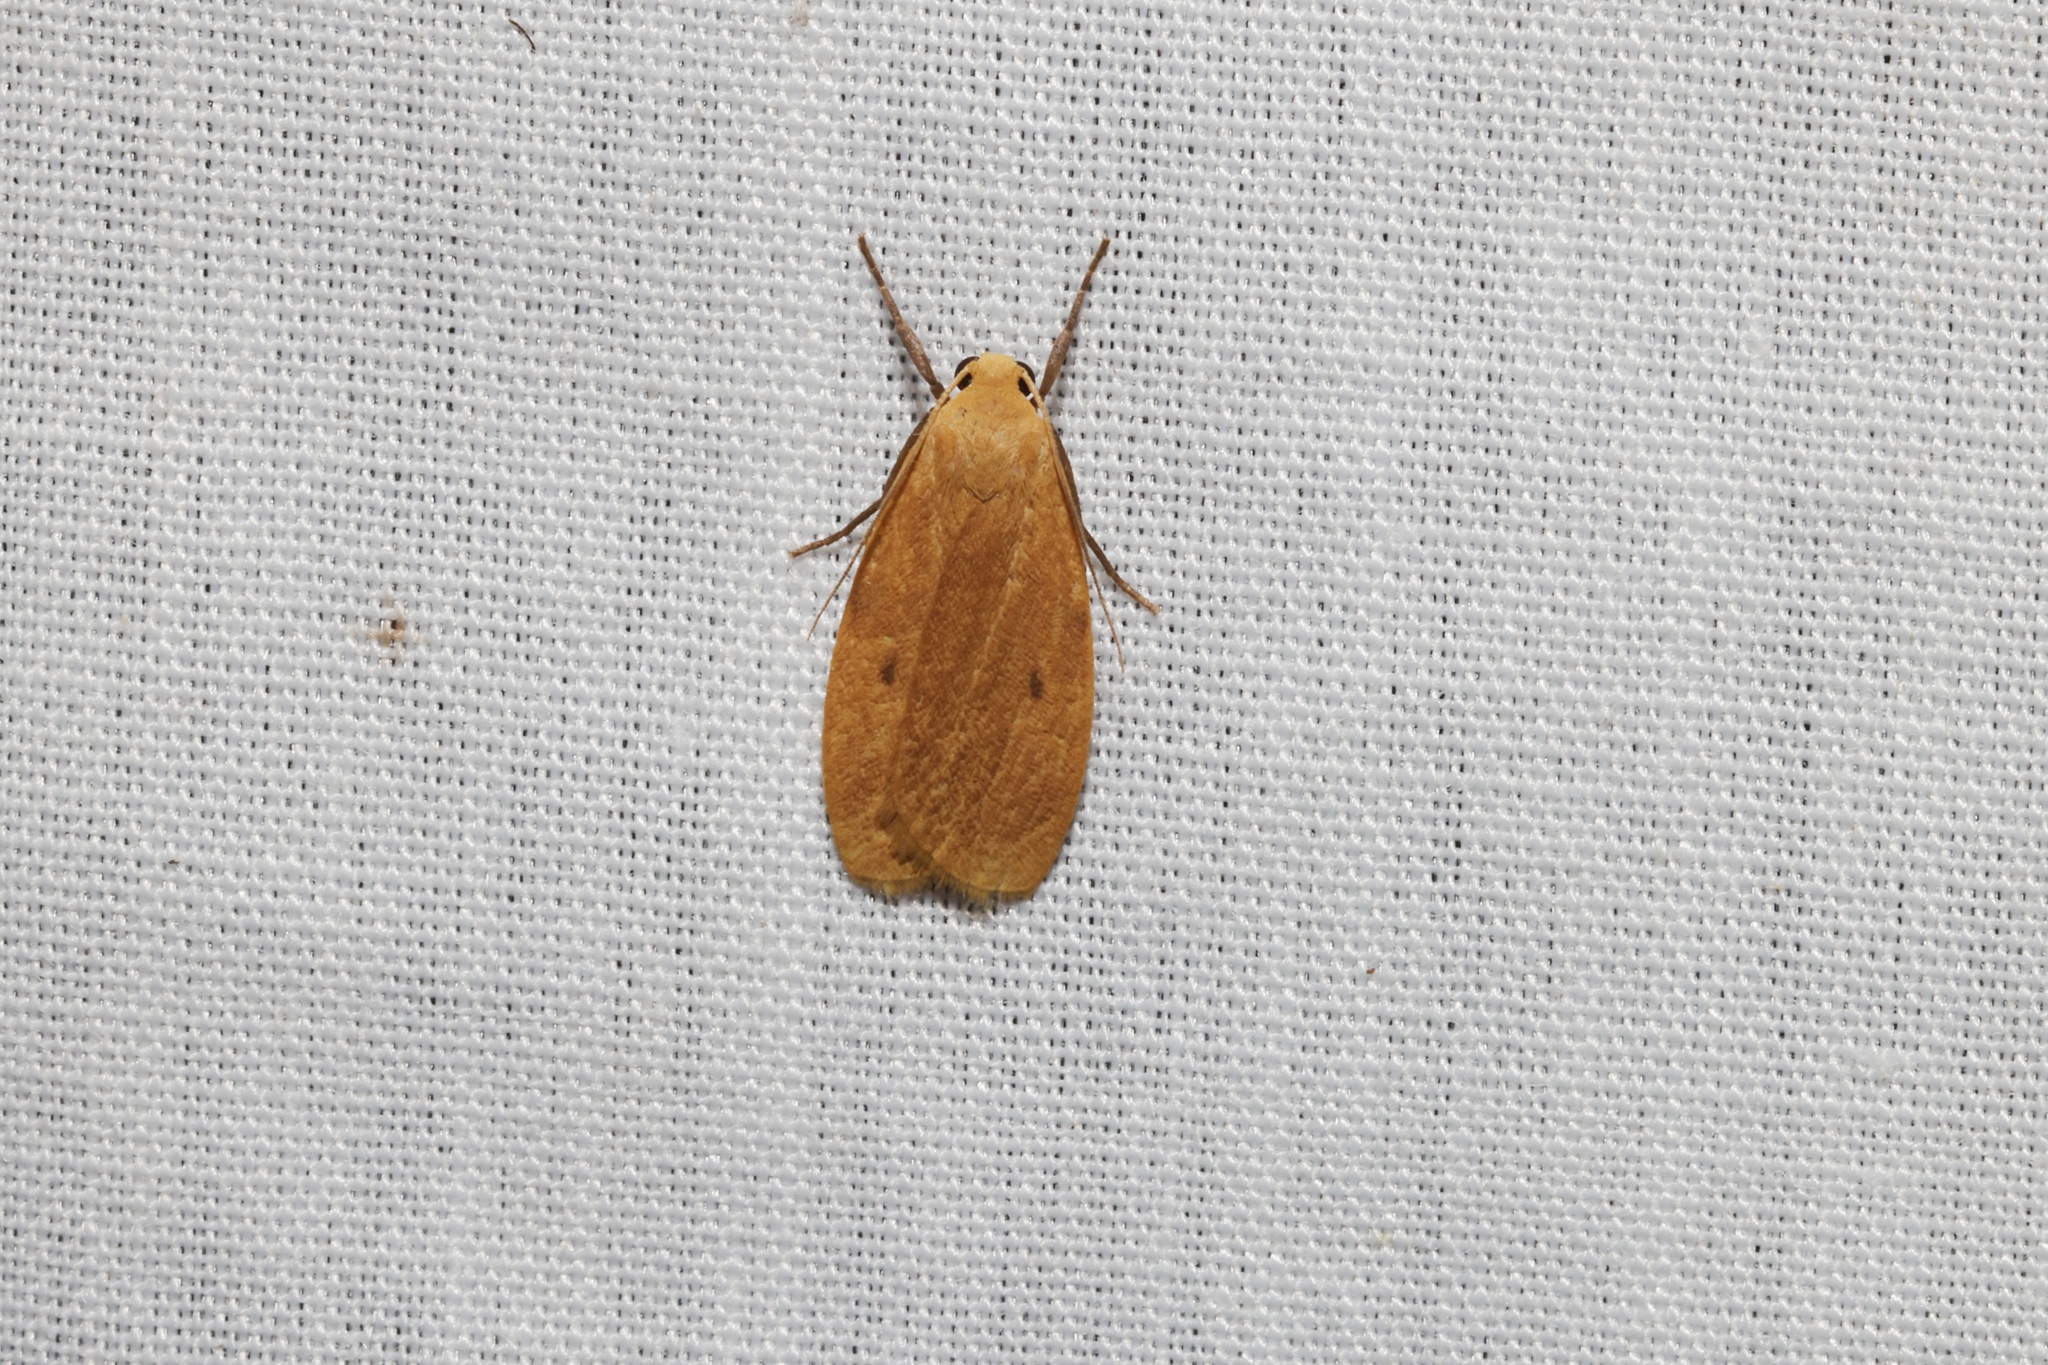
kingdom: Animalia
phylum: Arthropoda
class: Insecta
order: Lepidoptera
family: Erebidae
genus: Microlithosia
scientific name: Microlithosia shaowuica
